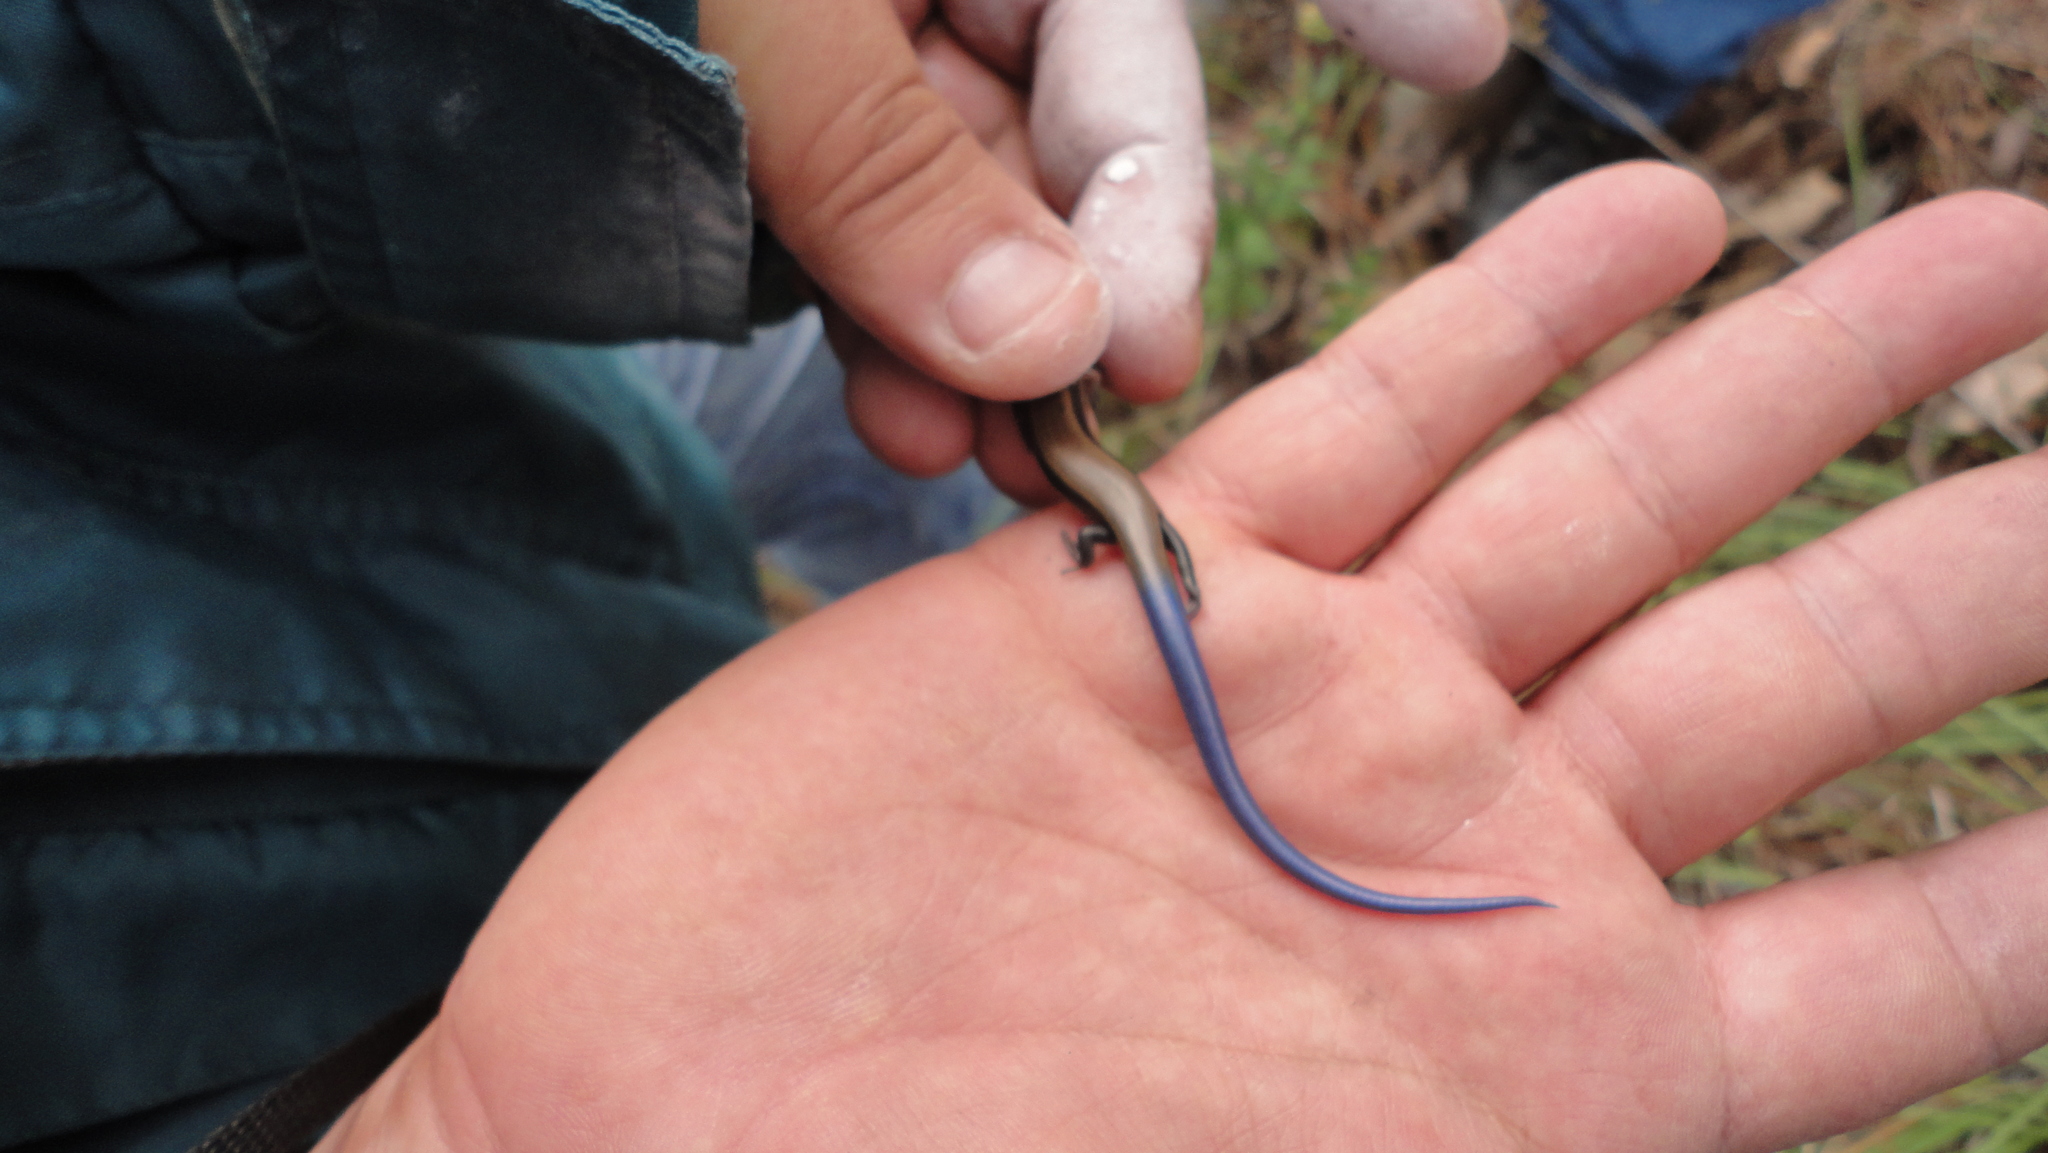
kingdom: Animalia
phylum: Chordata
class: Squamata
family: Scincidae
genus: Plestiodon
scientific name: Plestiodon brevirostris
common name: Shortnose skink
